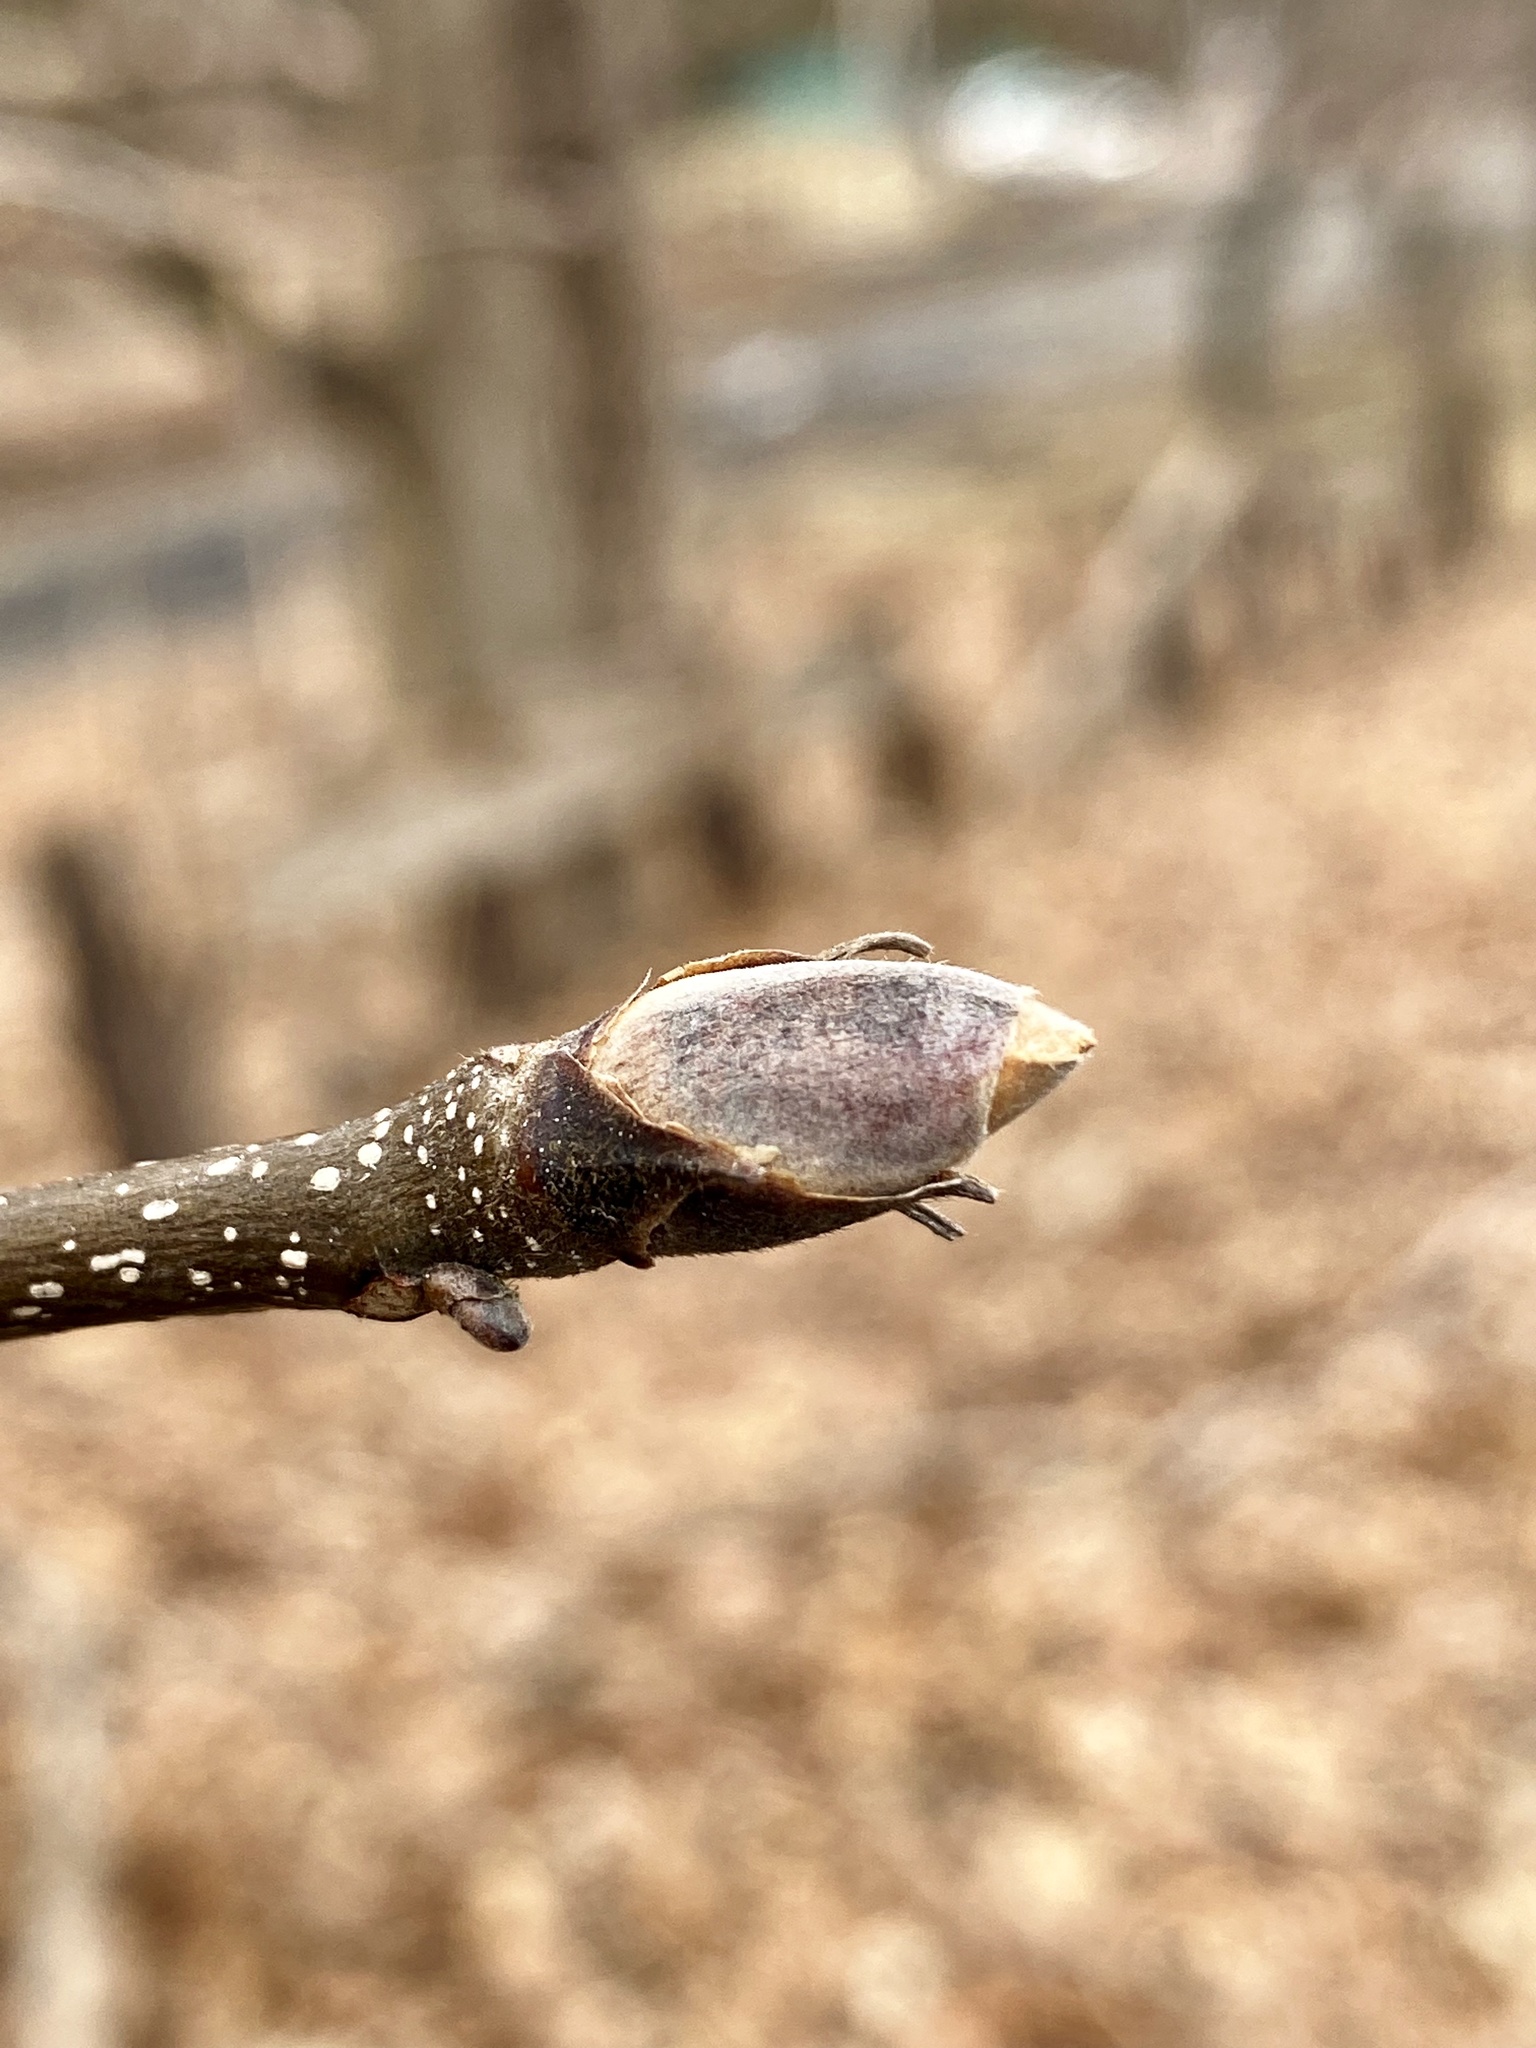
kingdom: Plantae
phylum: Tracheophyta
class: Magnoliopsida
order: Fagales
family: Juglandaceae
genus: Carya
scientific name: Carya ovata
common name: Shagbark hickory
